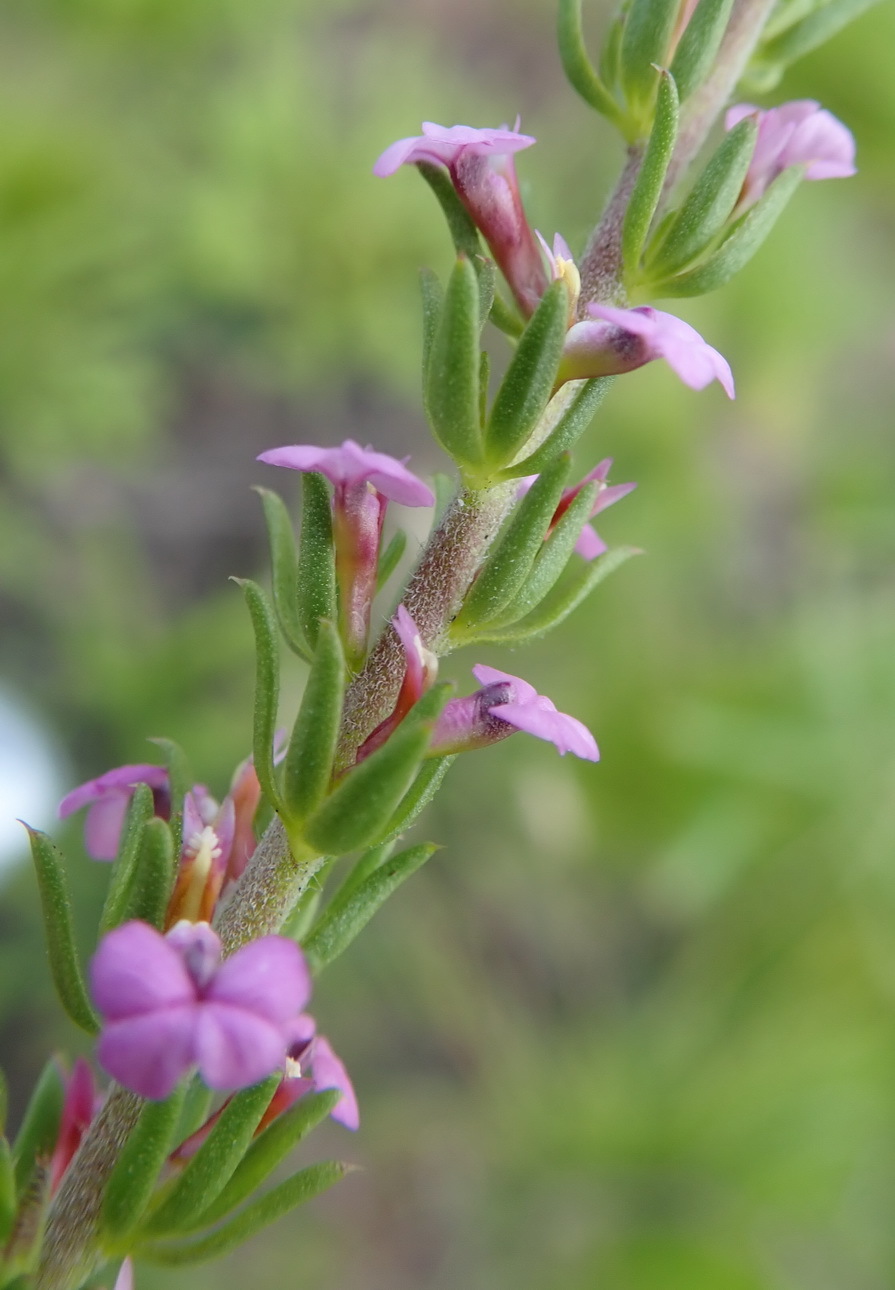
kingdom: Plantae
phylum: Tracheophyta
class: Magnoliopsida
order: Fabales
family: Polygalaceae
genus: Muraltia
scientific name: Muraltia squarrosa
